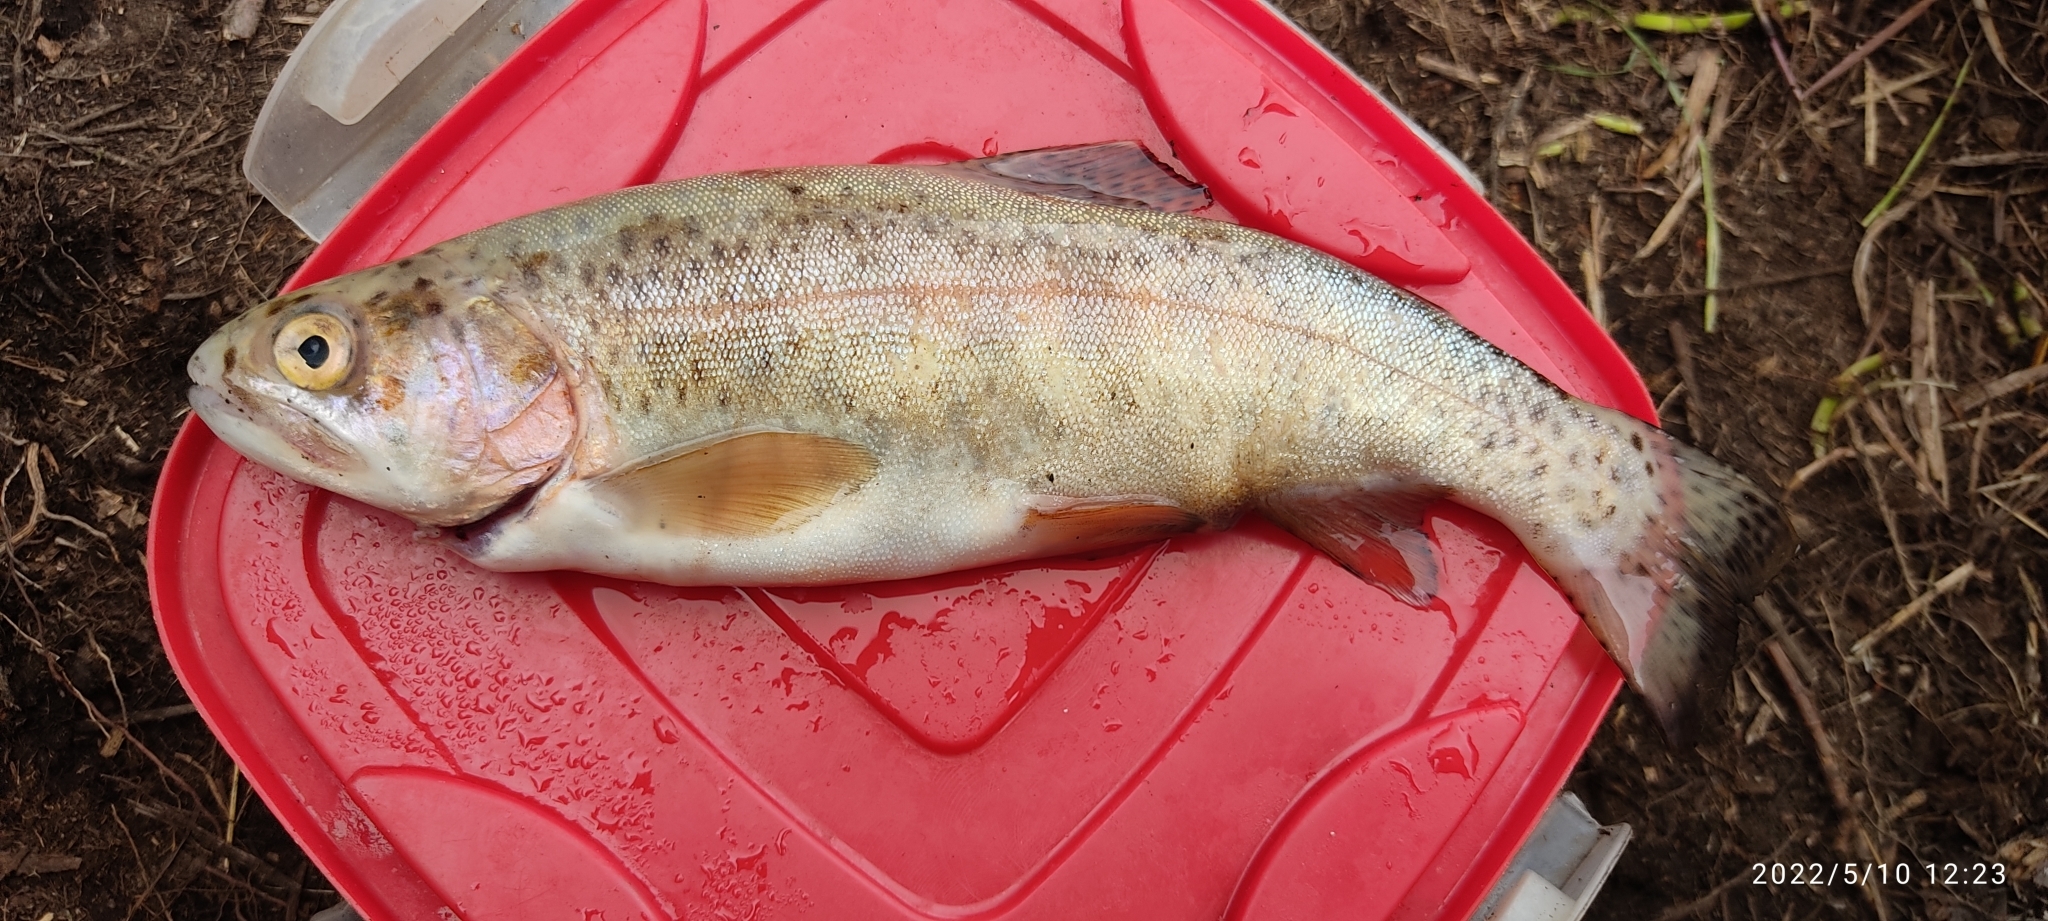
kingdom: Animalia
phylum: Chordata
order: Salmoniformes
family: Salmonidae
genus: Oncorhynchus
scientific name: Oncorhynchus mykiss
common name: Rainbow trout
